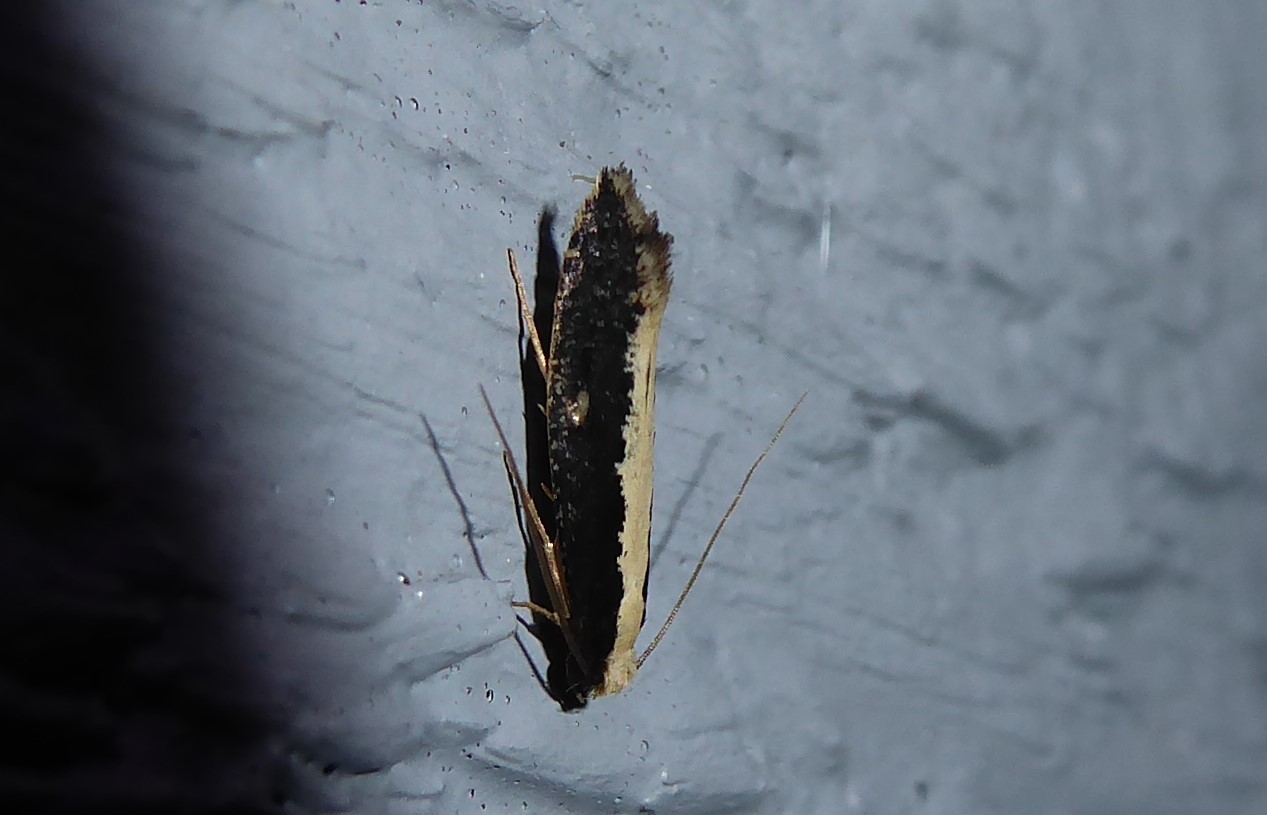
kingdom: Animalia
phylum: Arthropoda
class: Insecta
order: Lepidoptera
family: Tineidae
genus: Monopis
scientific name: Monopis ethelella
